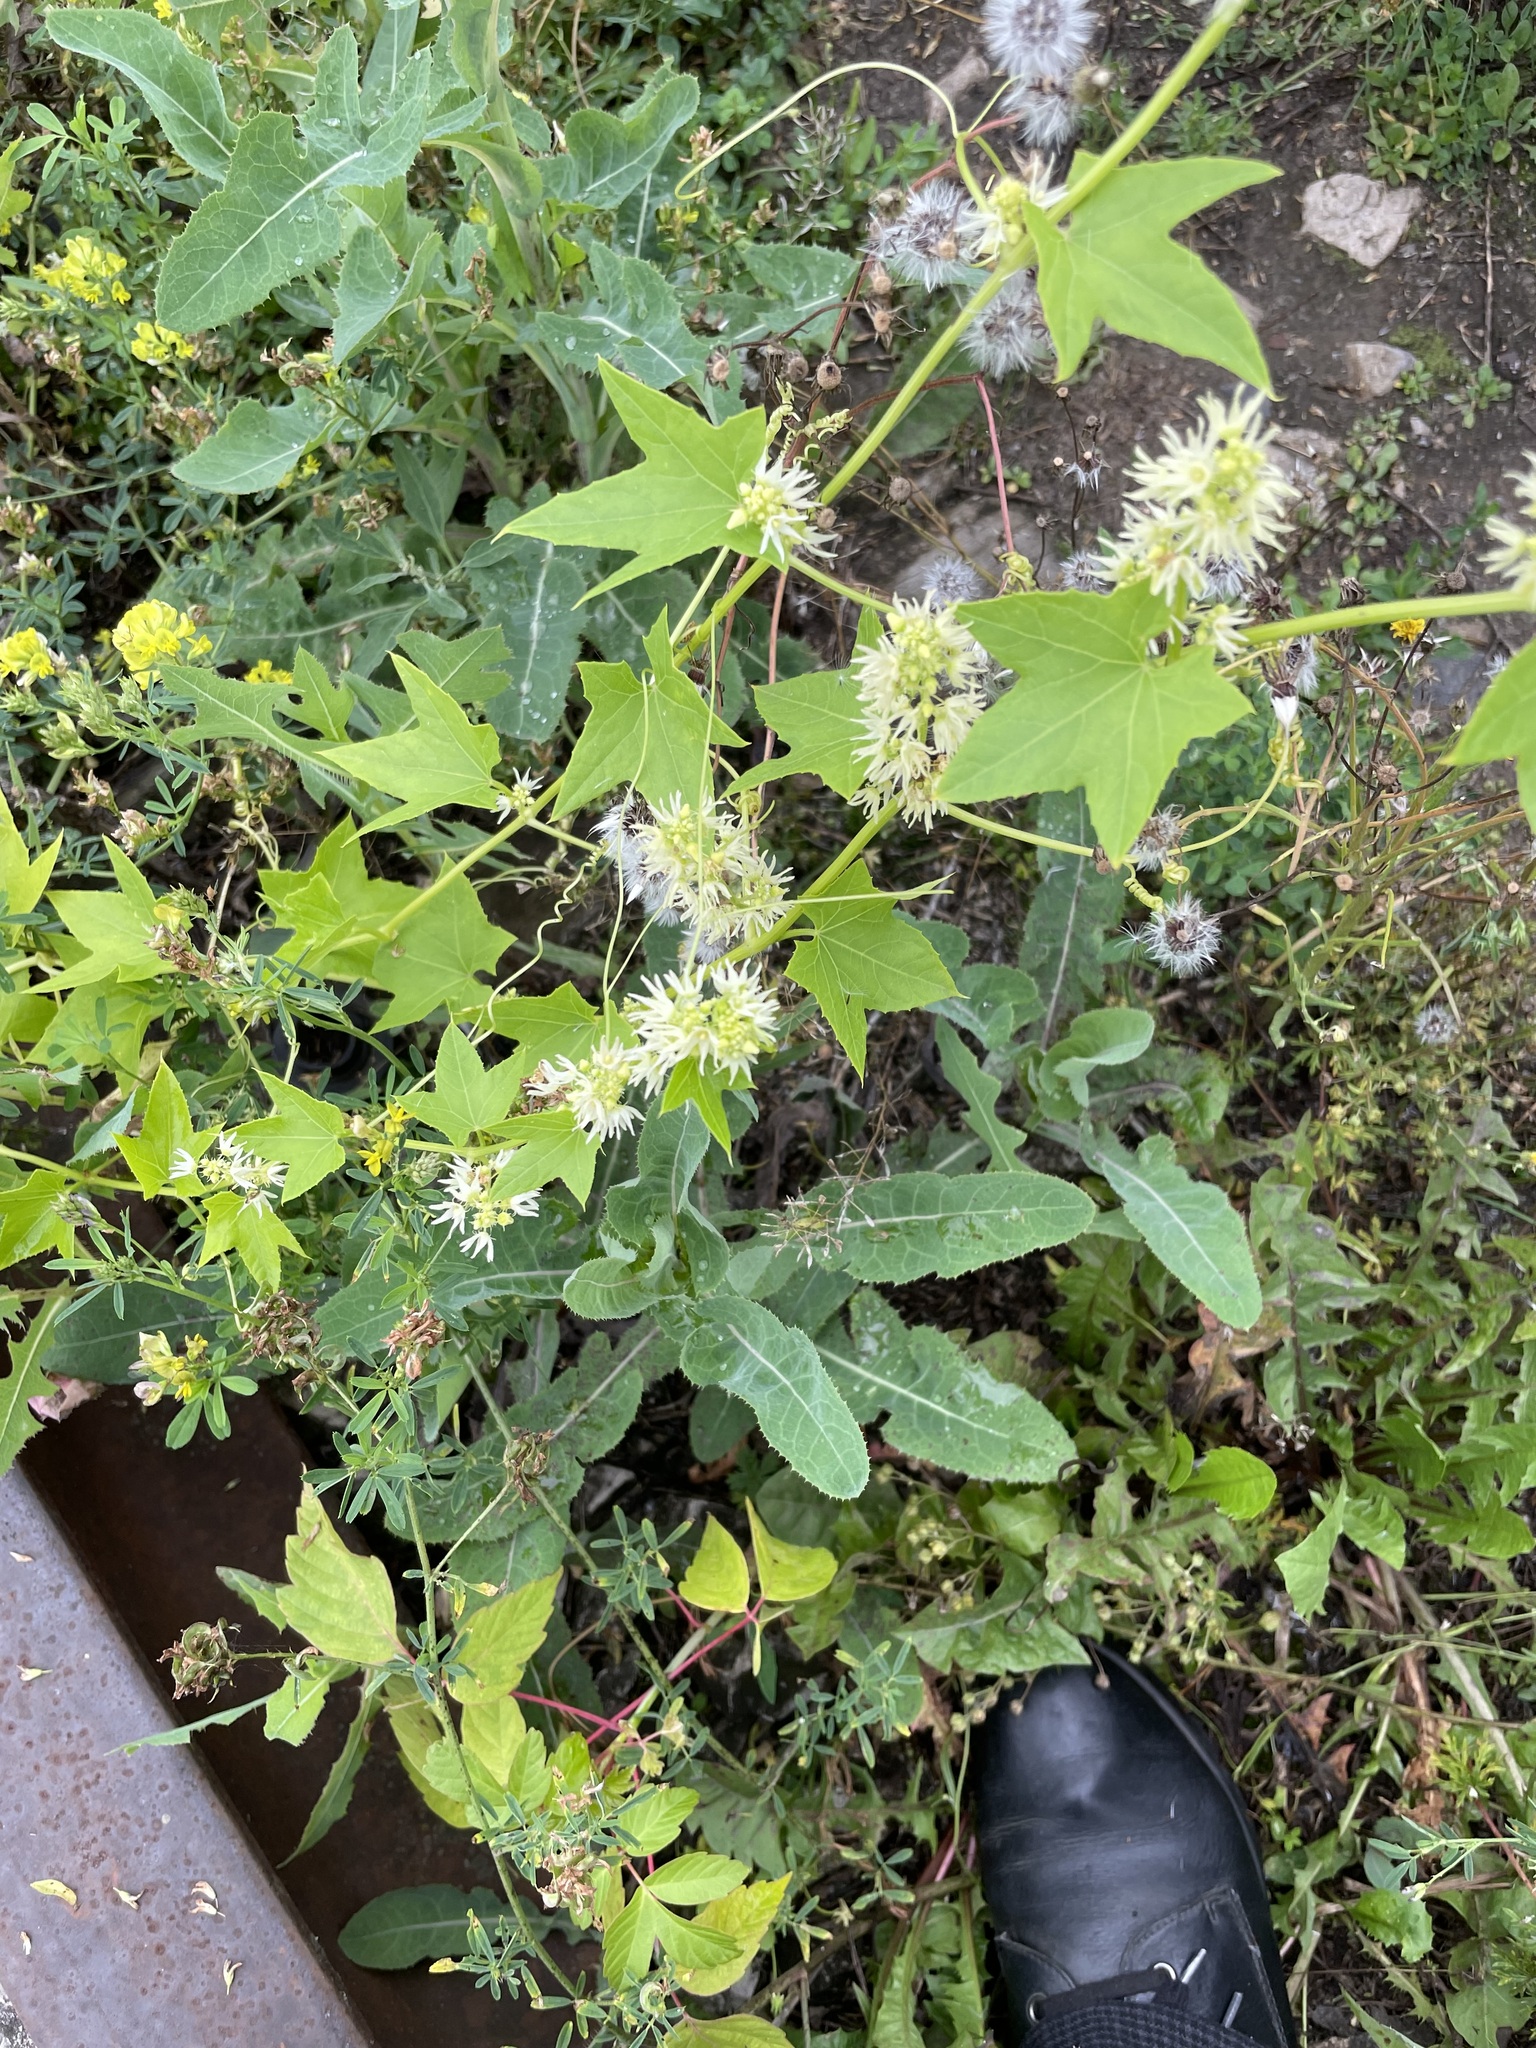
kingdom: Plantae
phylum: Tracheophyta
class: Magnoliopsida
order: Cucurbitales
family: Cucurbitaceae
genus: Echinocystis
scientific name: Echinocystis lobata
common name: Wild cucumber
